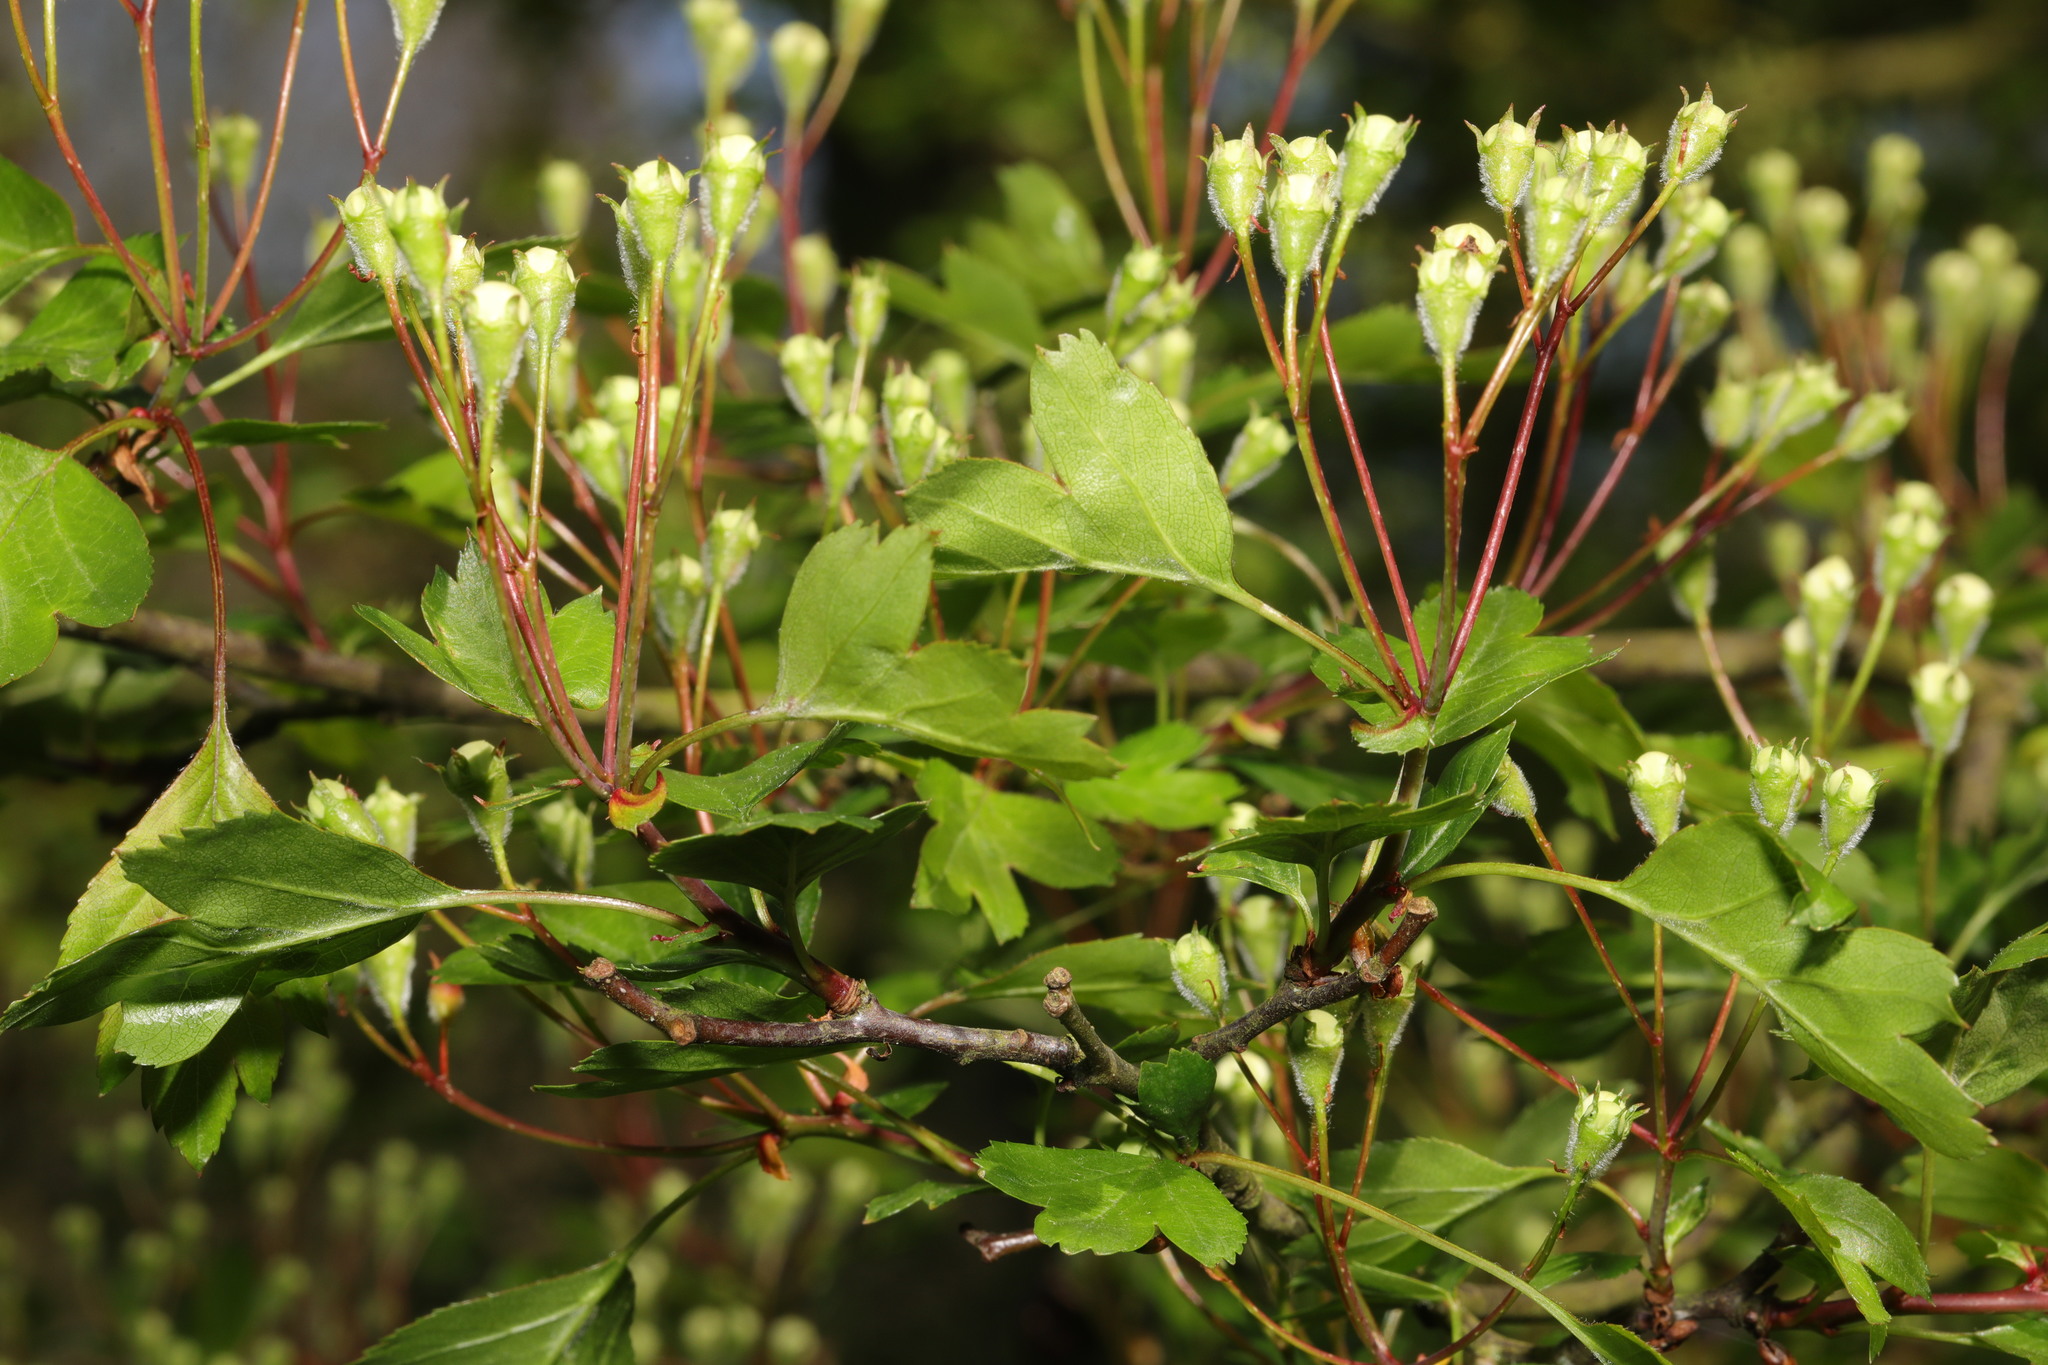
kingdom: Plantae
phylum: Tracheophyta
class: Magnoliopsida
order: Rosales
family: Rosaceae
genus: Crataegus
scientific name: Crataegus monogyna
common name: Hawthorn
